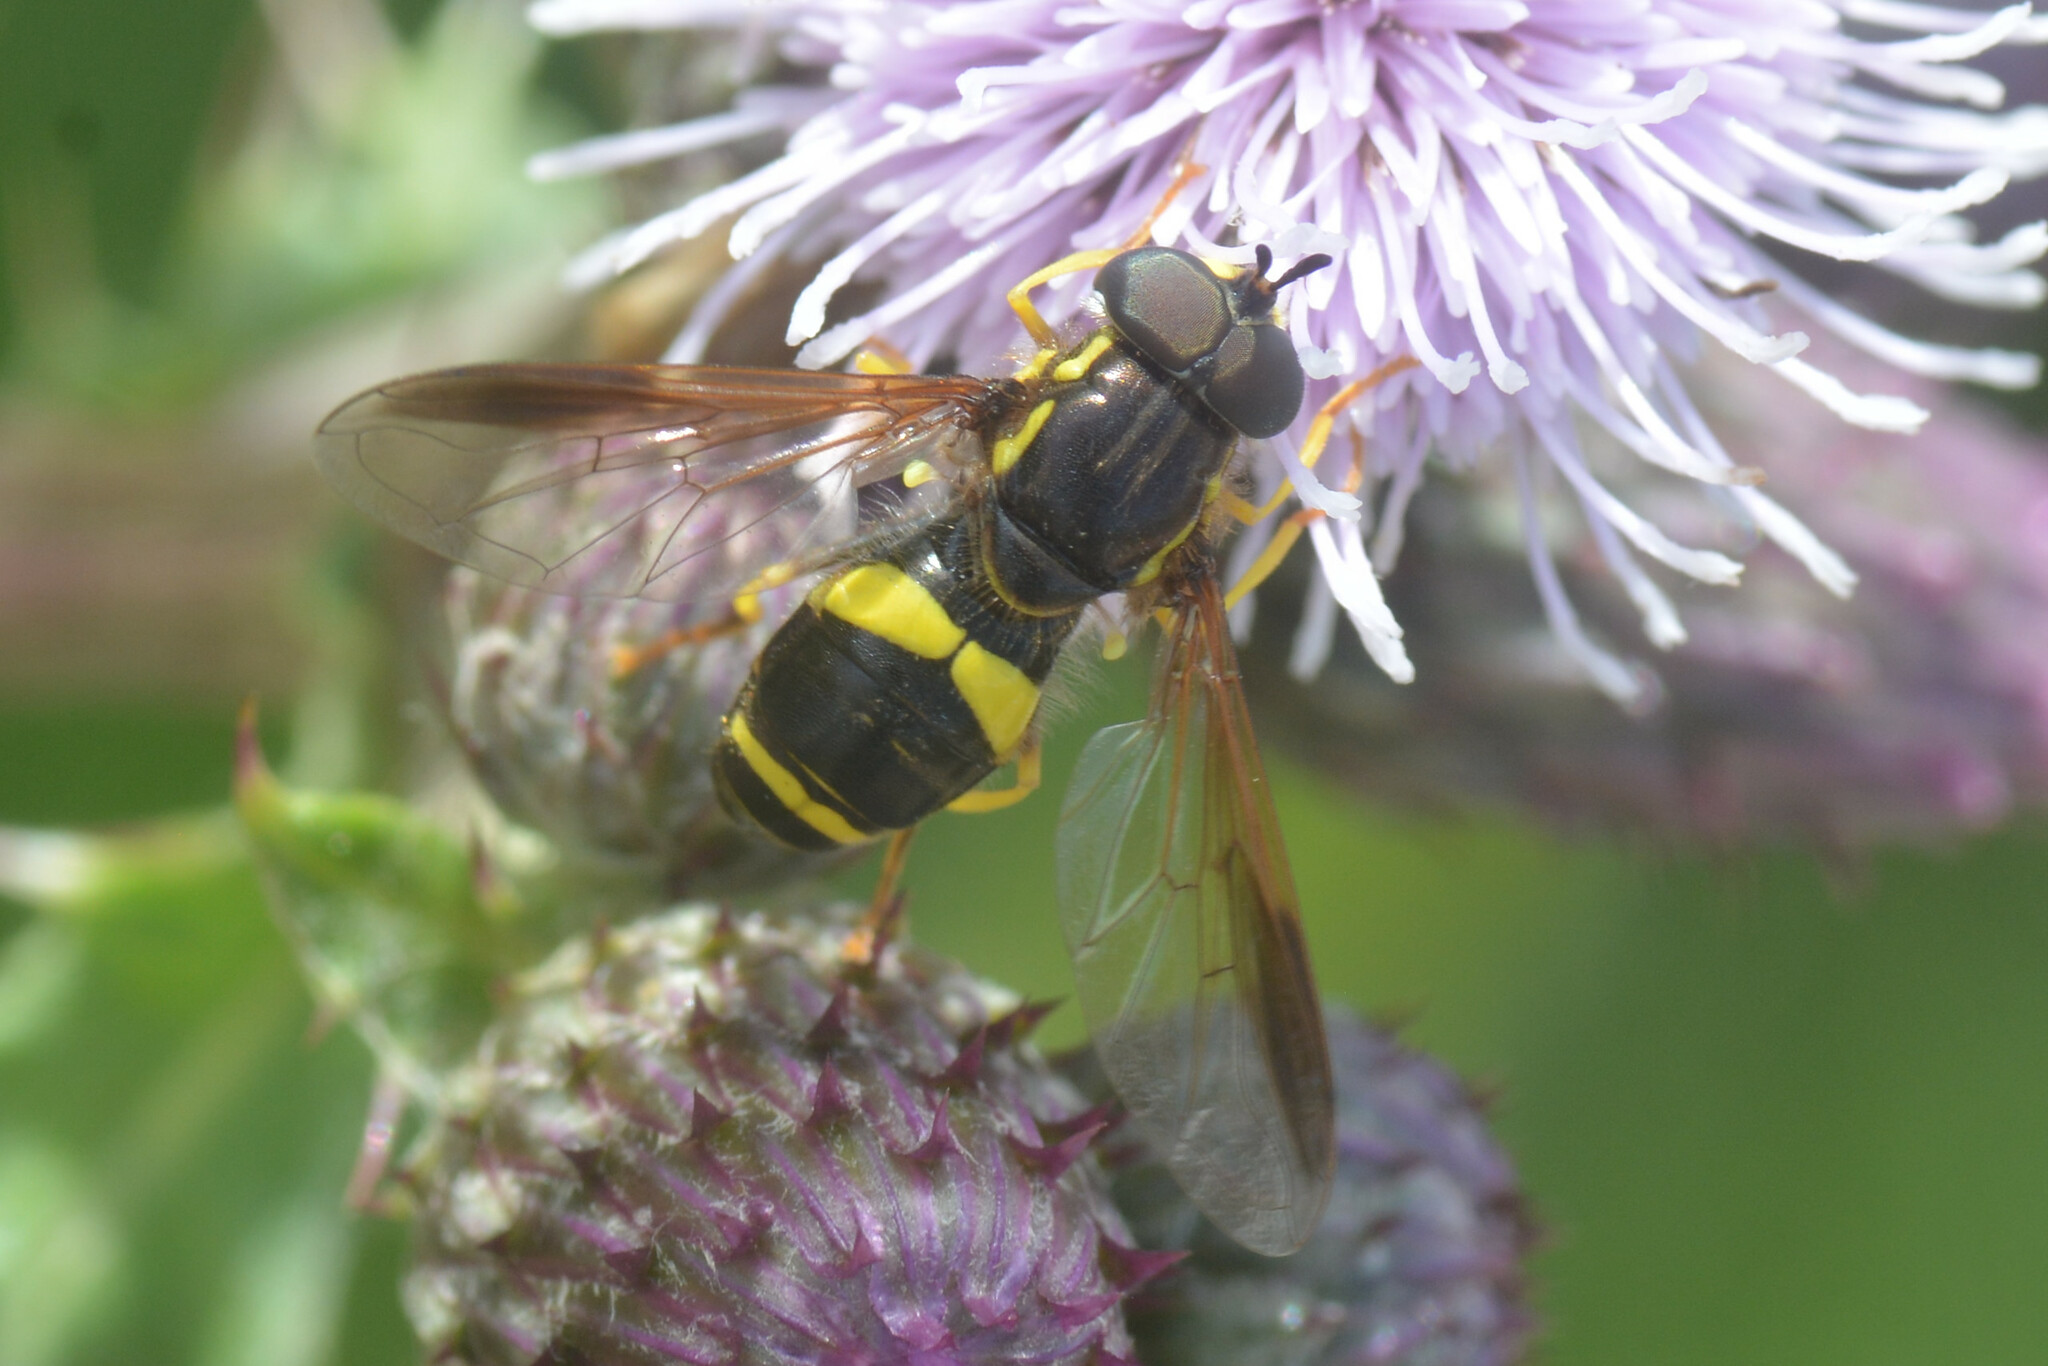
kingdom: Animalia
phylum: Arthropoda
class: Insecta
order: Diptera
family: Syrphidae
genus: Chrysotoxum
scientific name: Chrysotoxum bicincta
